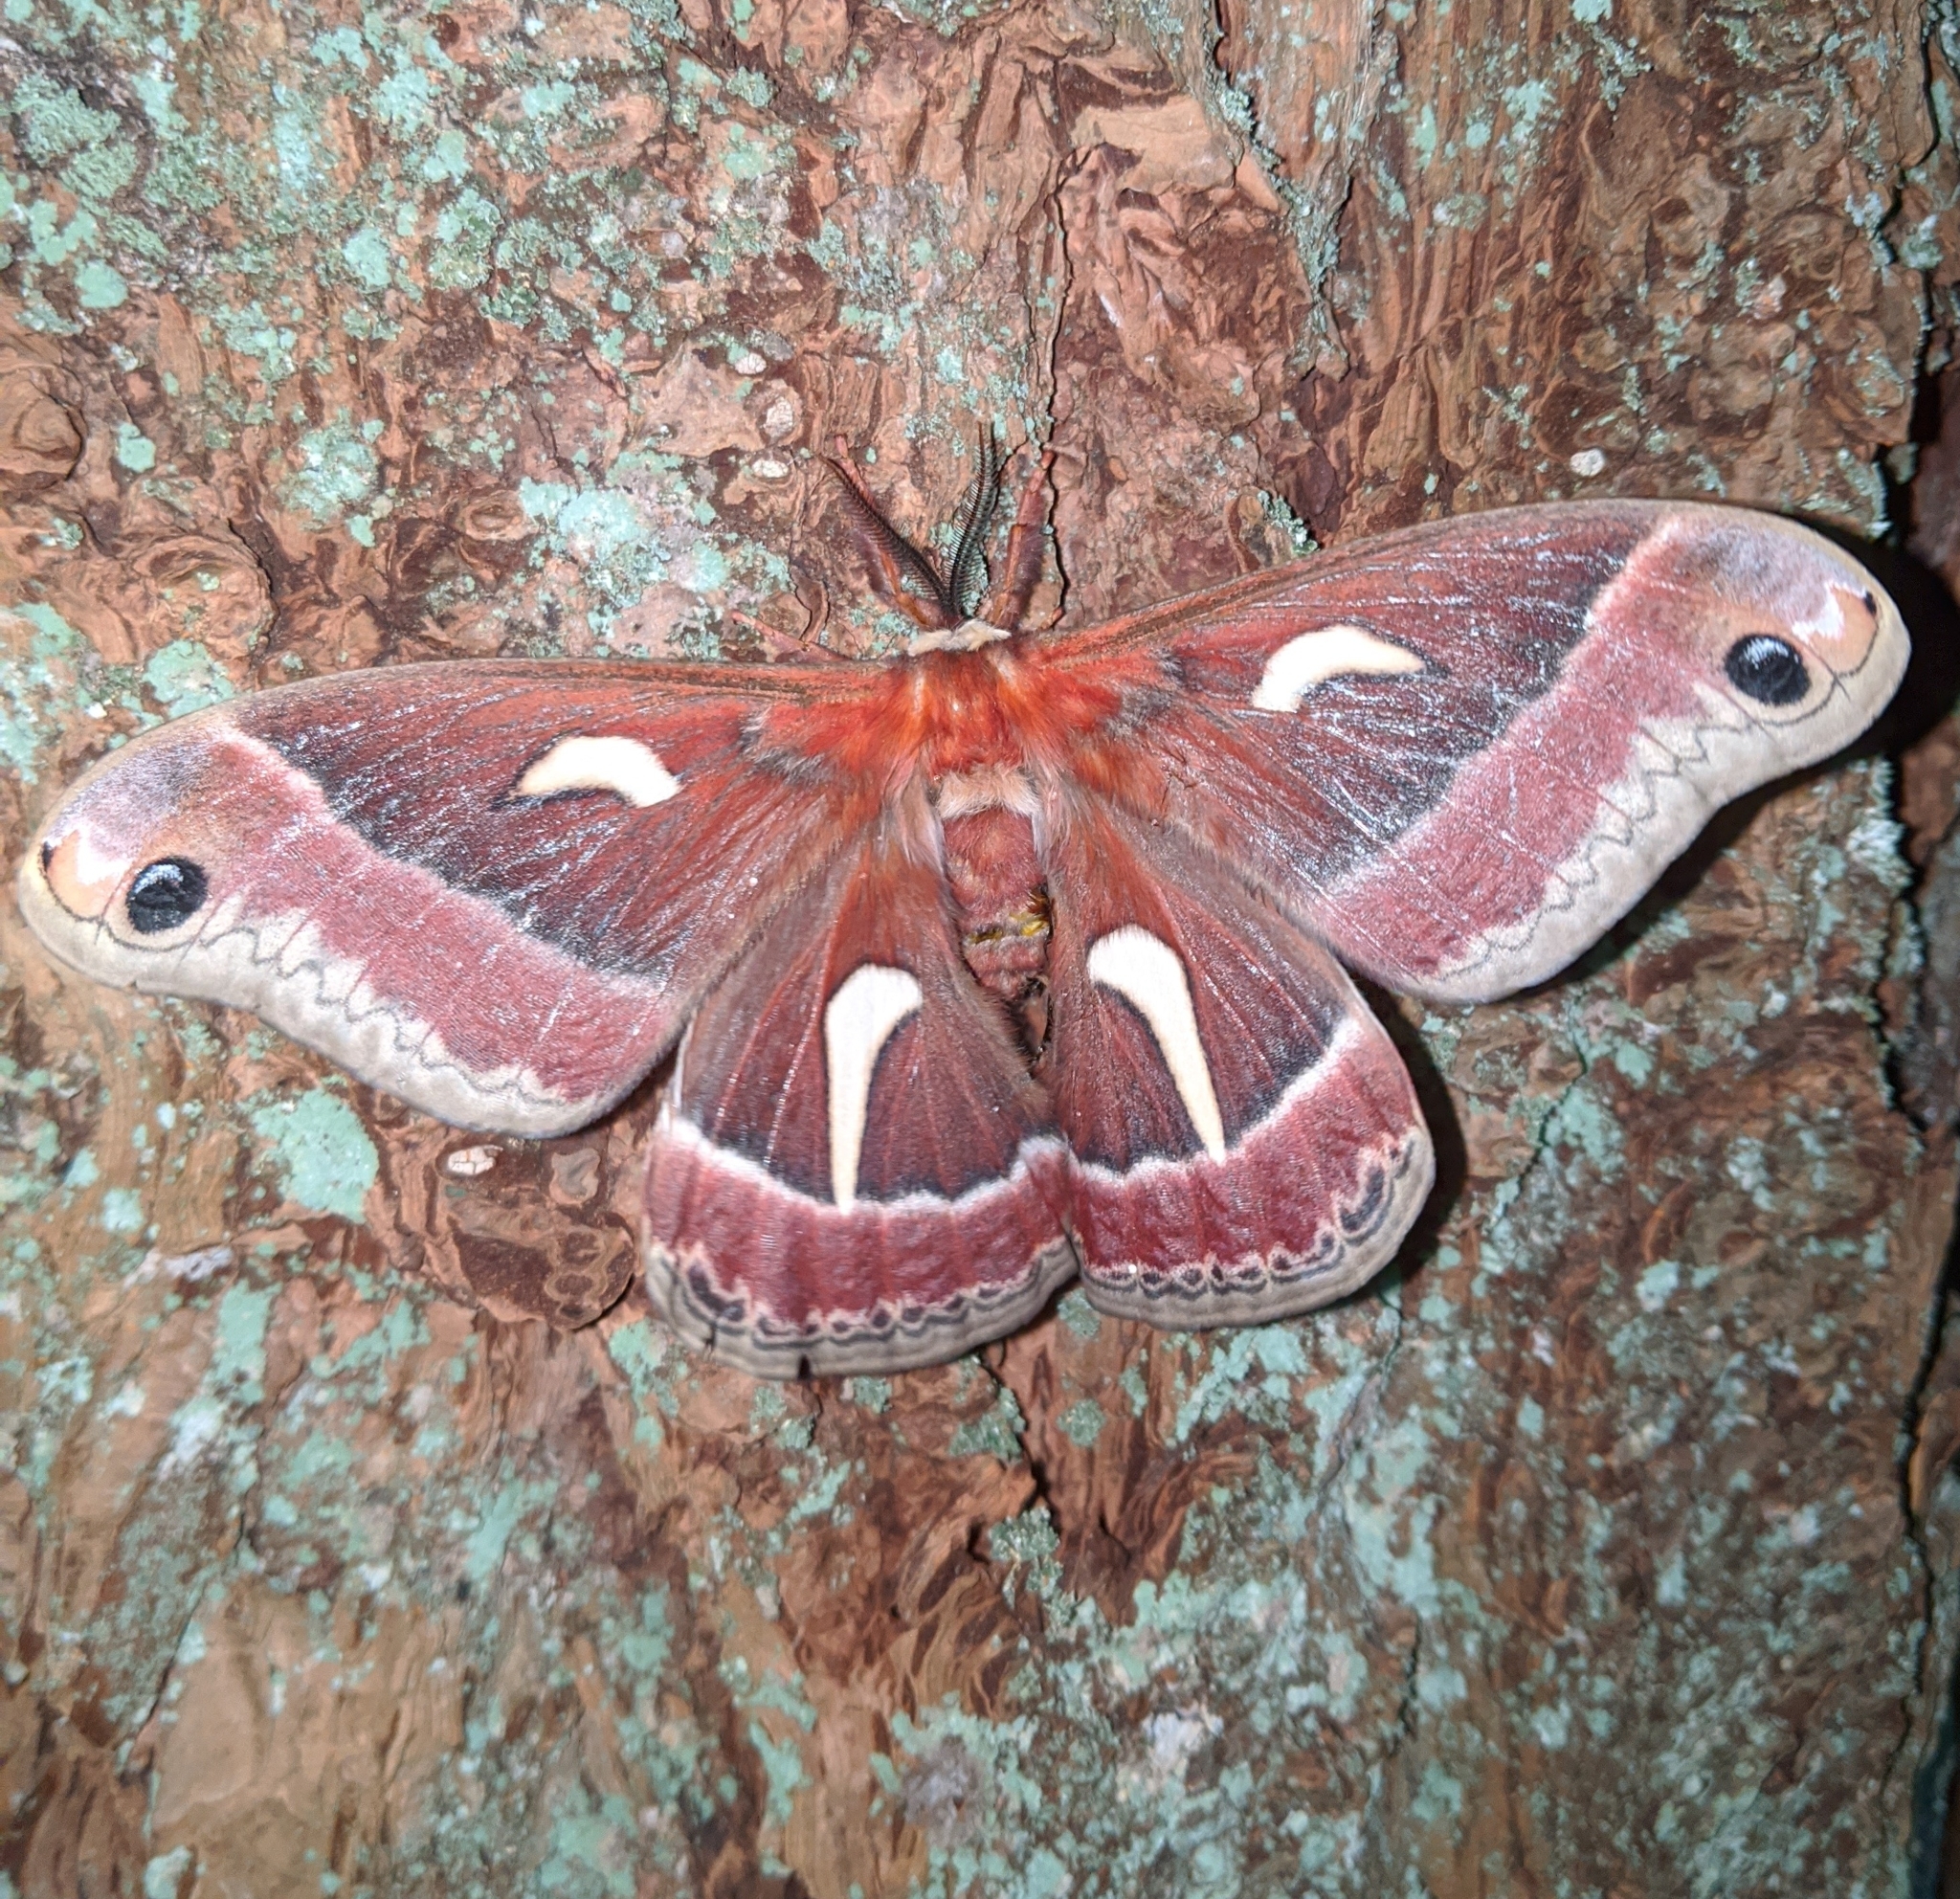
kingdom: Animalia
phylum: Arthropoda
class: Insecta
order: Lepidoptera
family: Saturniidae
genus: Hyalophora
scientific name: Hyalophora euryalus
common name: Ceanothus silkmoth
